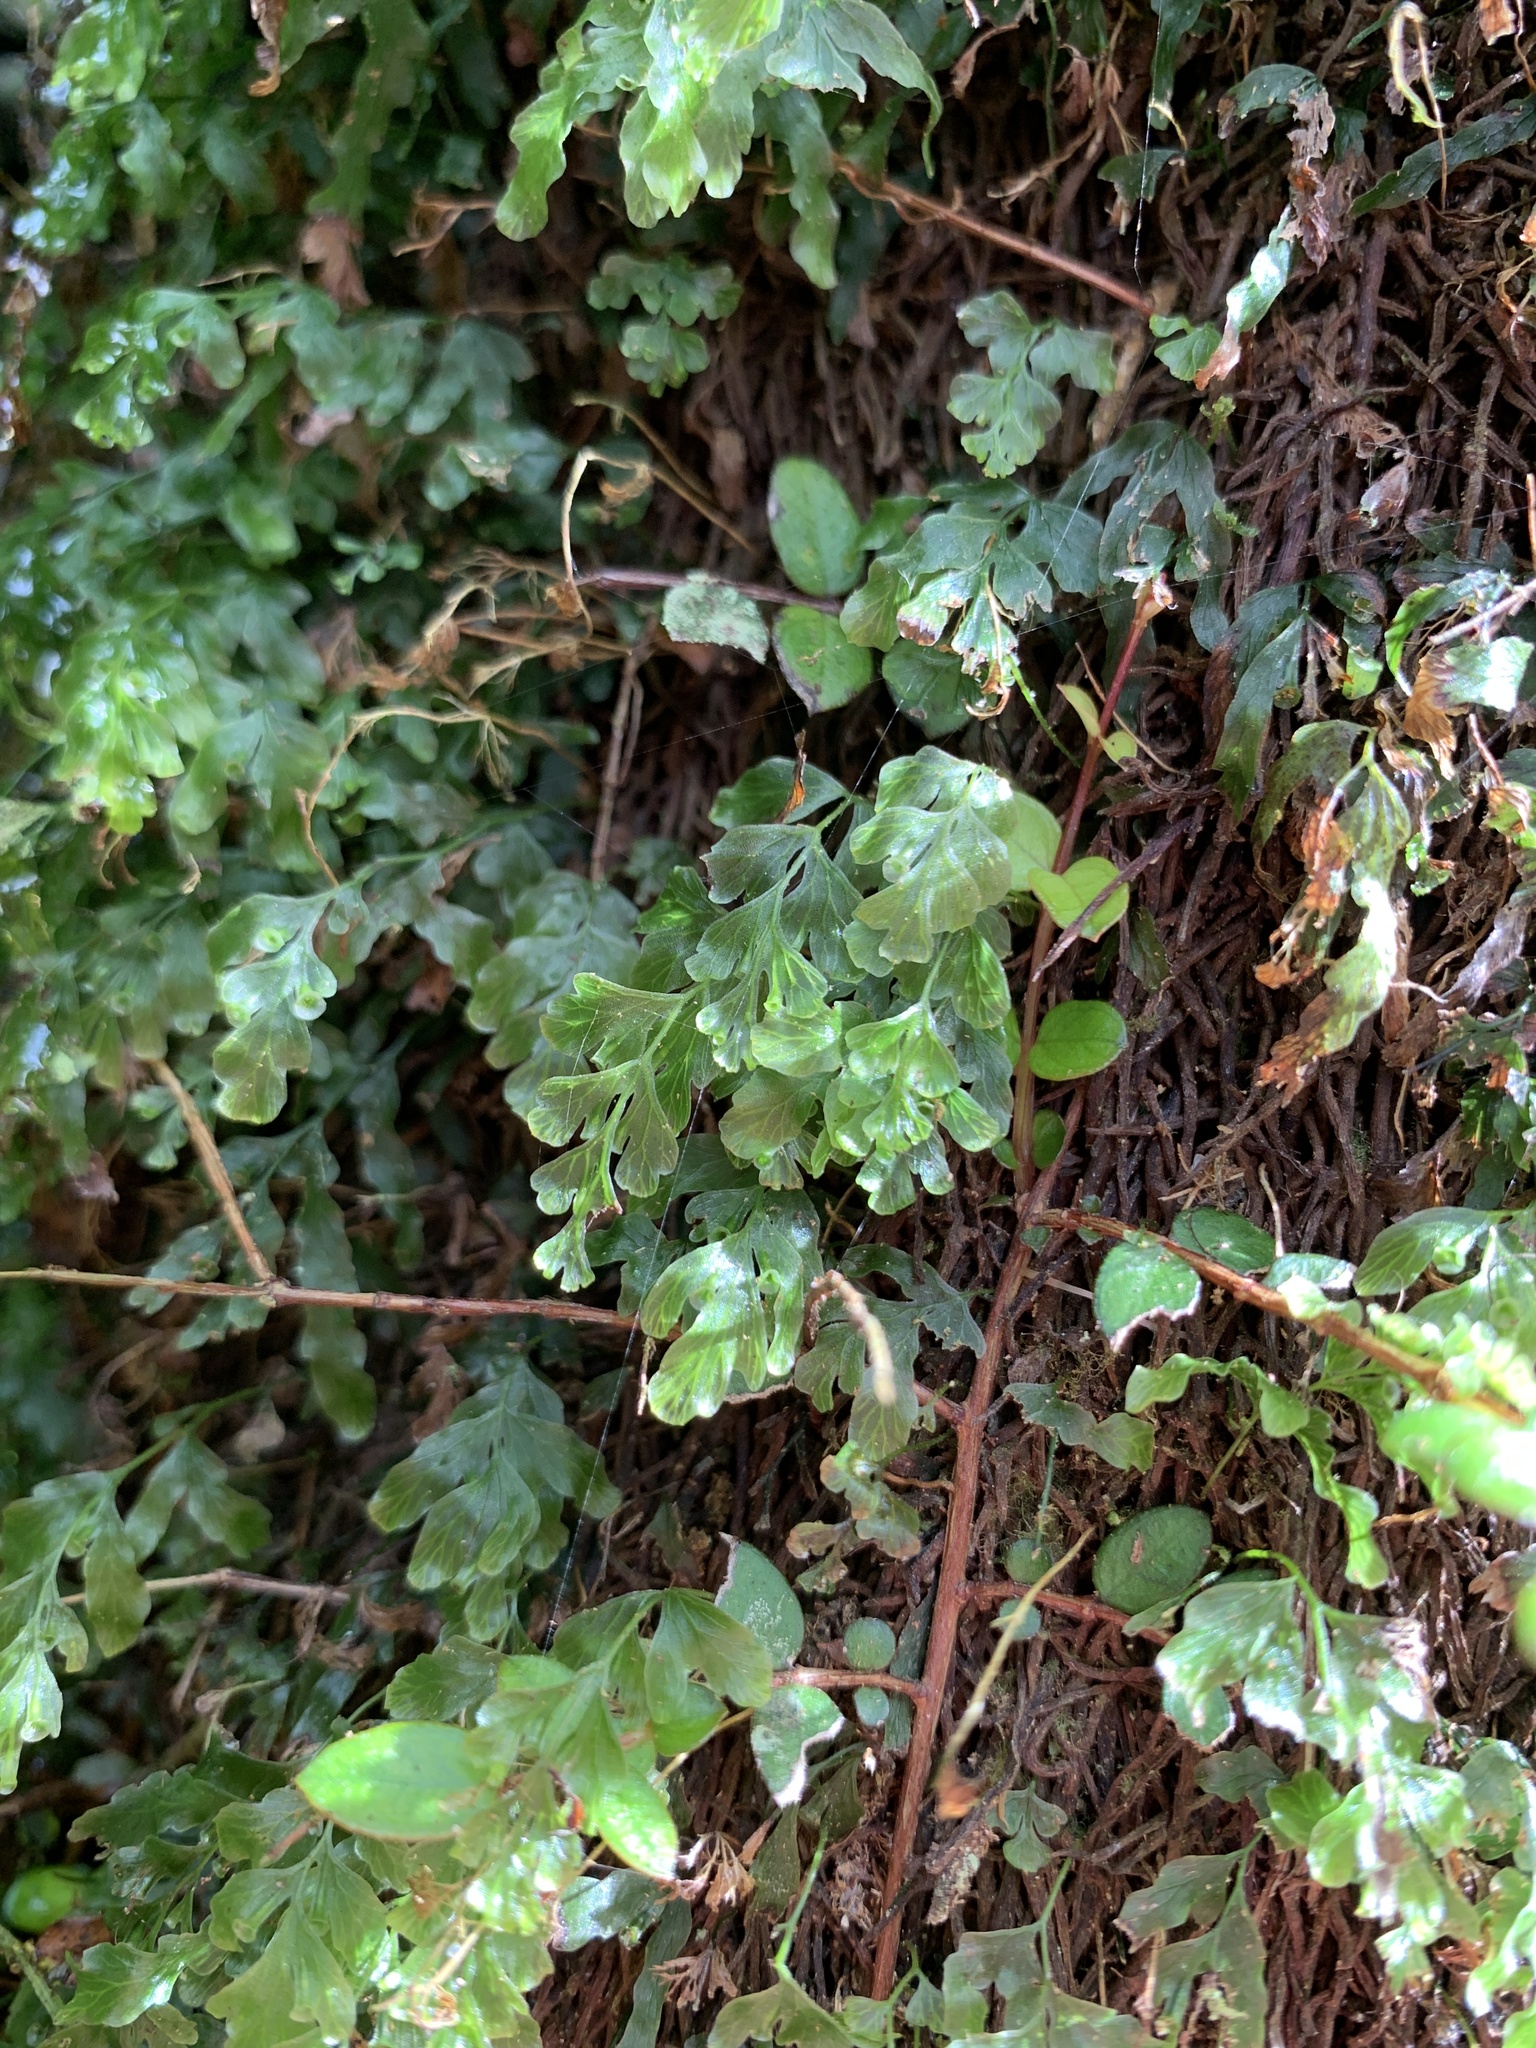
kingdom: Plantae
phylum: Tracheophyta
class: Polypodiopsida
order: Hymenophyllales
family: Hymenophyllaceae
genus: Polyphlebium
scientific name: Polyphlebium venosum
